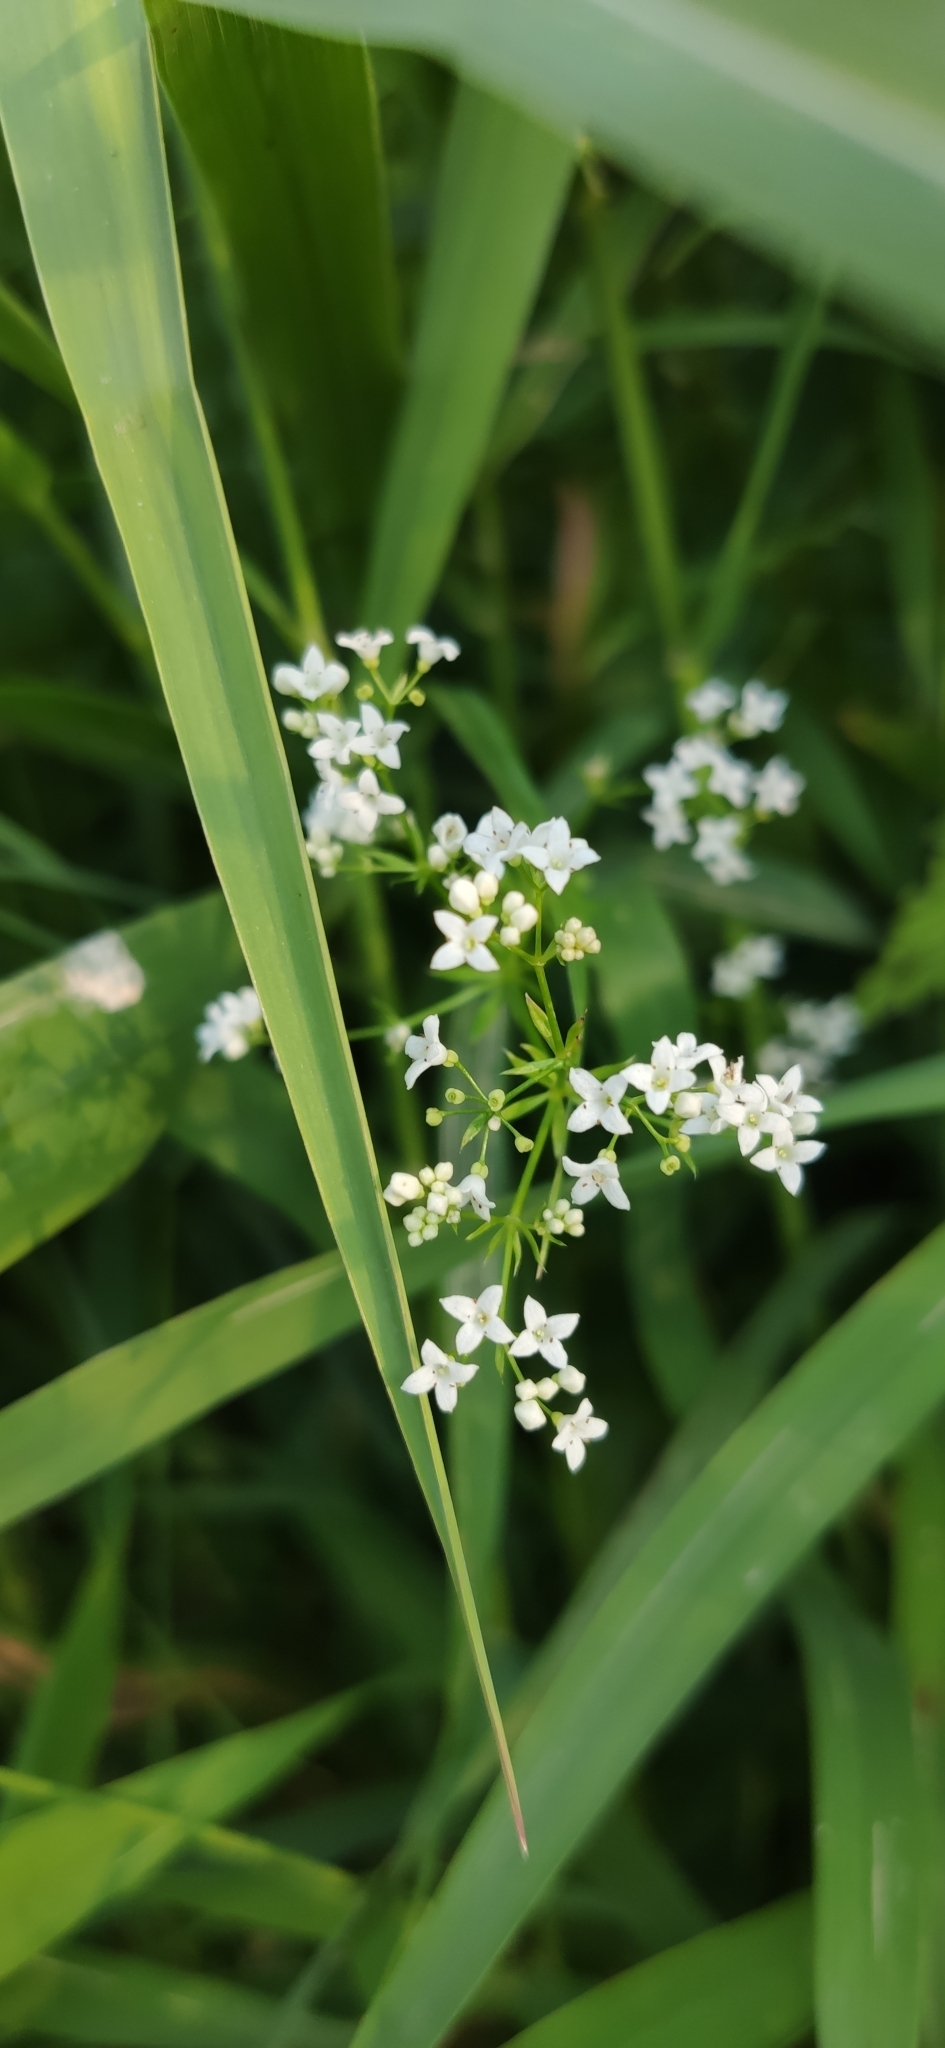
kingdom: Plantae
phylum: Tracheophyta
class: Magnoliopsida
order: Gentianales
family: Rubiaceae
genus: Galium
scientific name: Galium rivale
